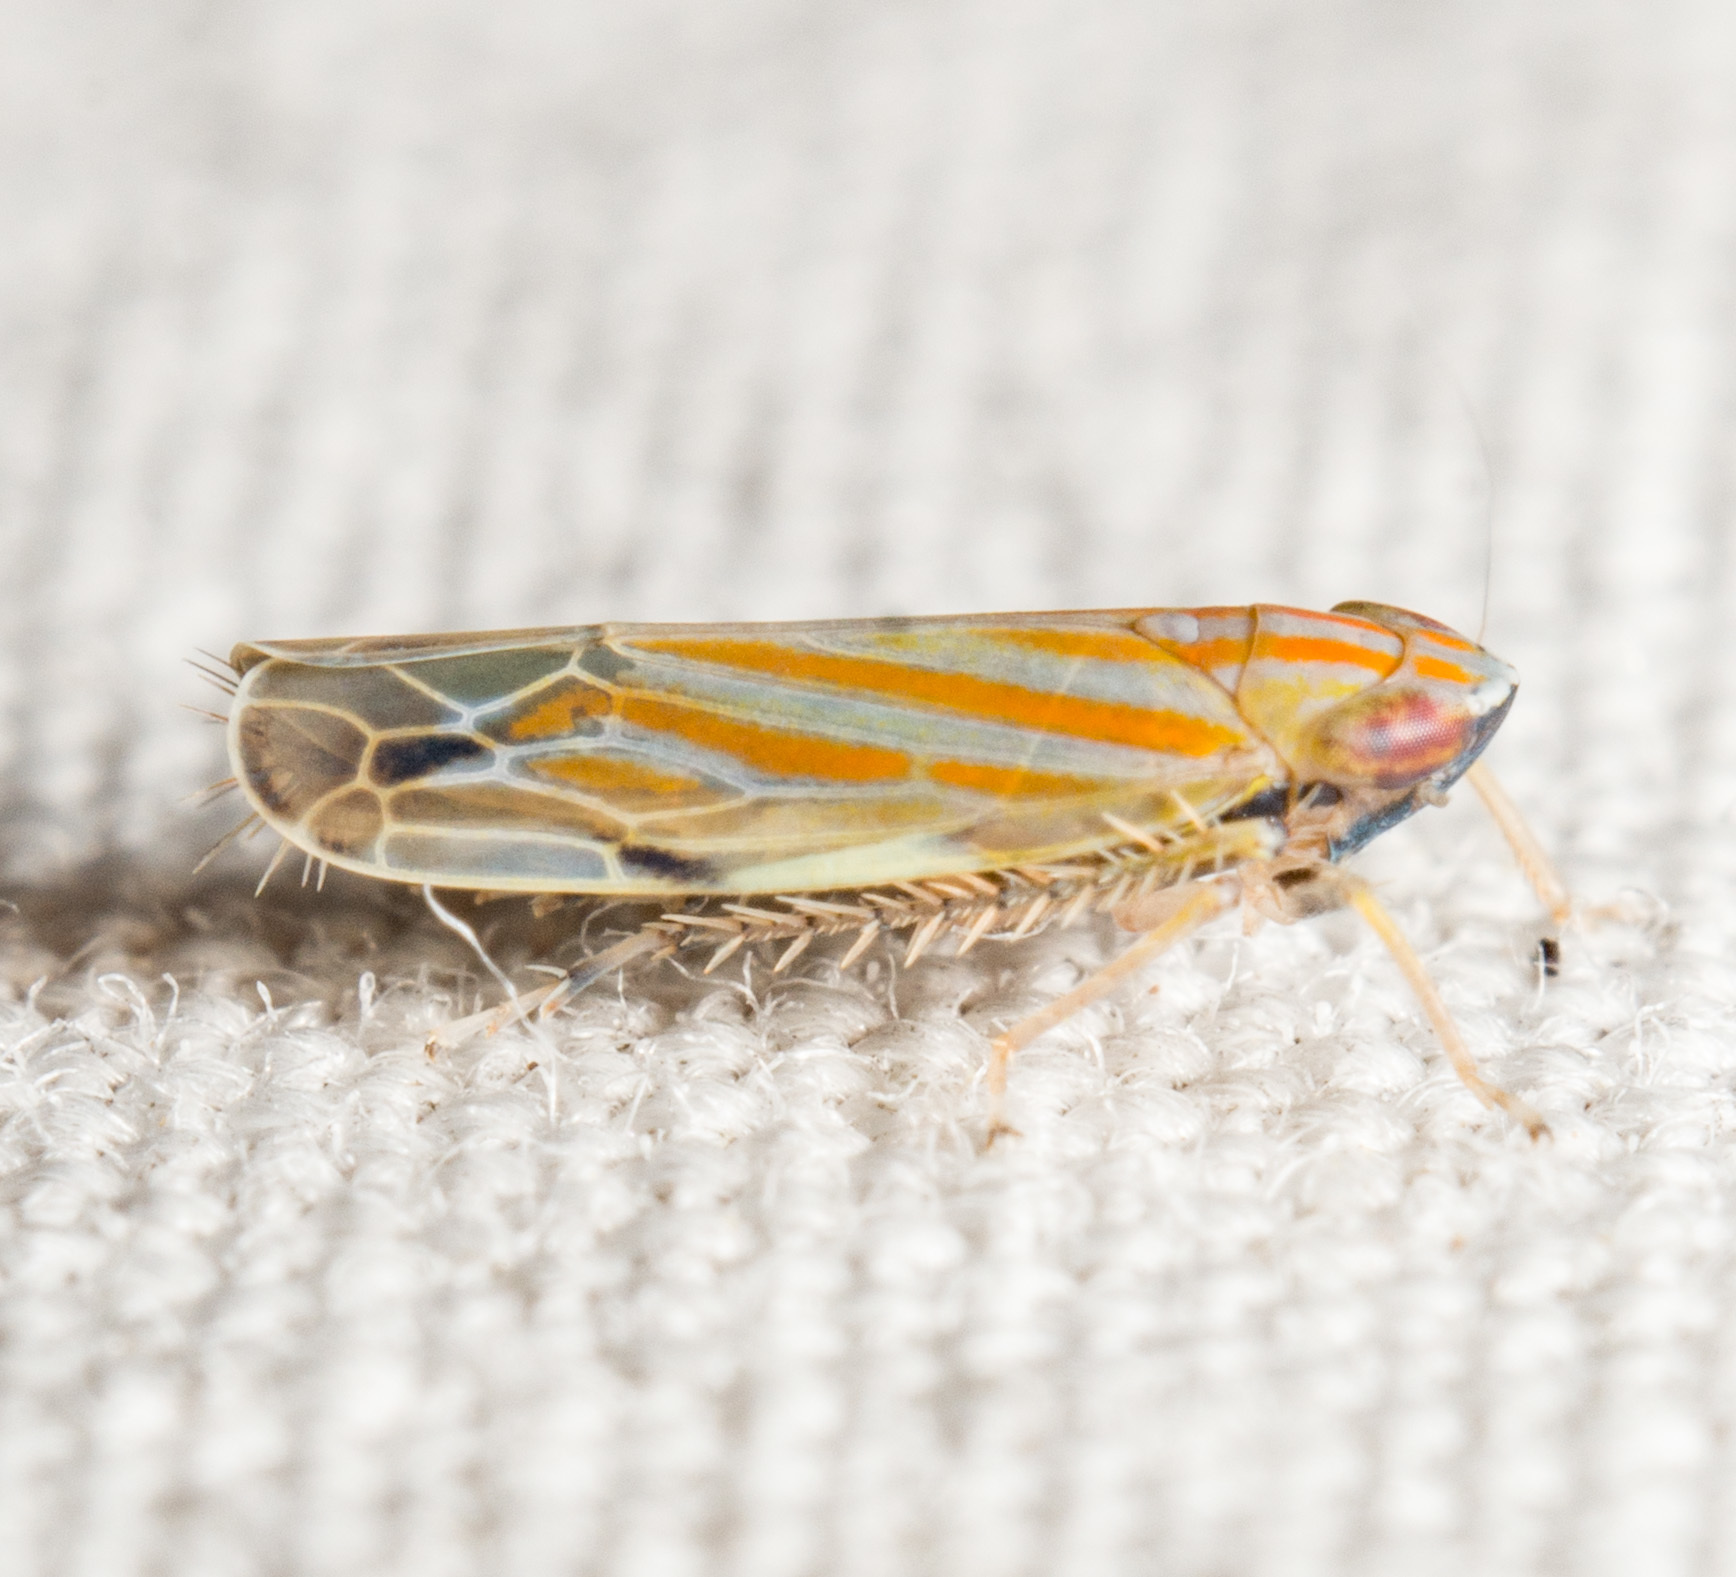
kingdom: Animalia
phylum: Arthropoda
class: Insecta
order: Hemiptera
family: Cicadellidae
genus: Deltanus
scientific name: Deltanus texanus
